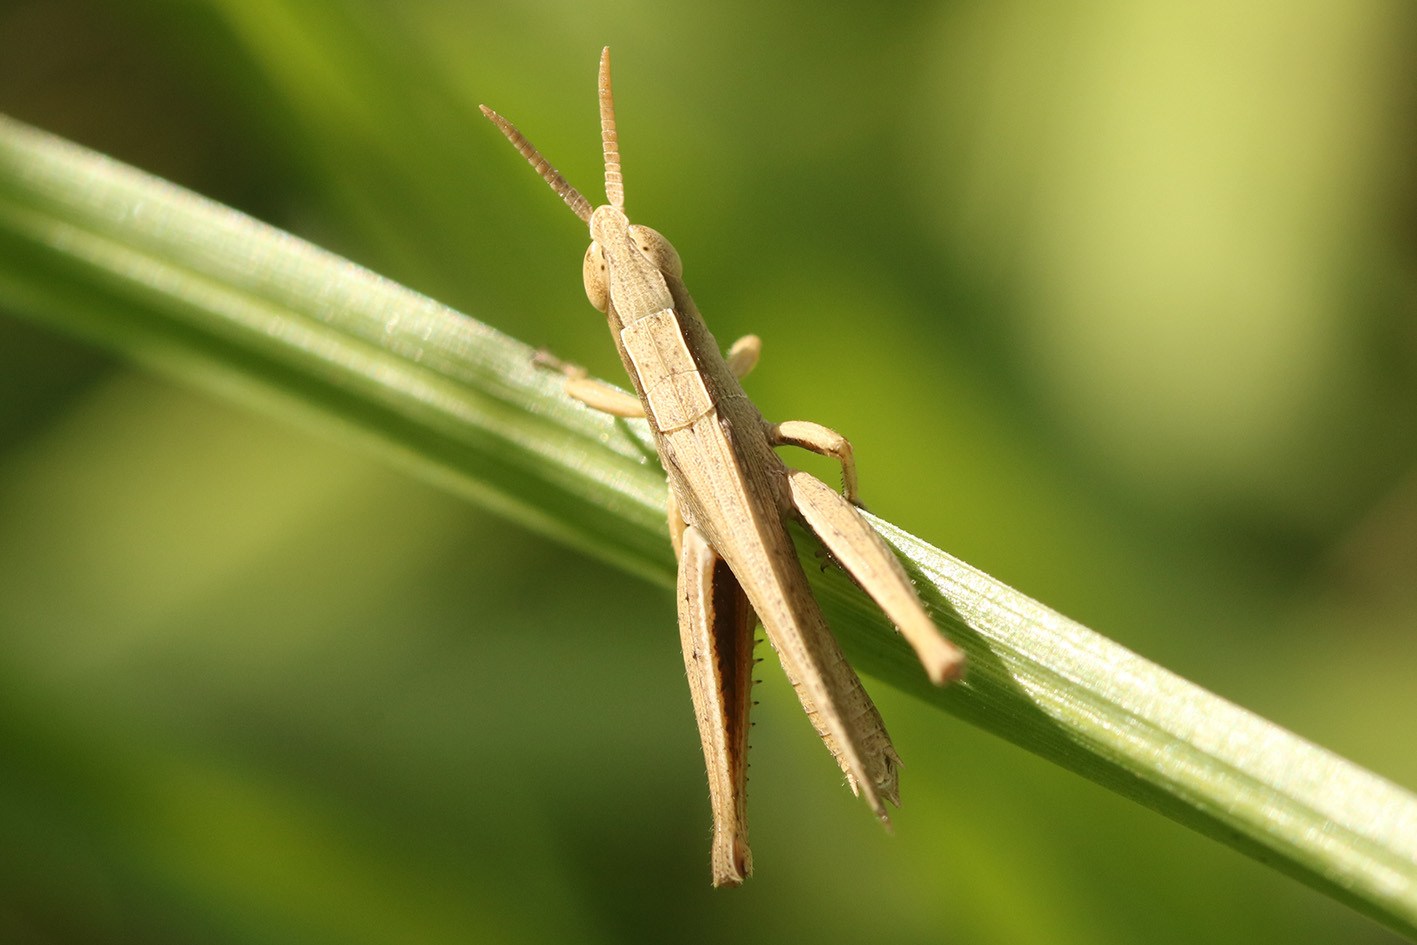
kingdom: Animalia
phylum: Arthropoda
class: Insecta
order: Orthoptera
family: Acrididae
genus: Laplatacris
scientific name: Laplatacris dispar
